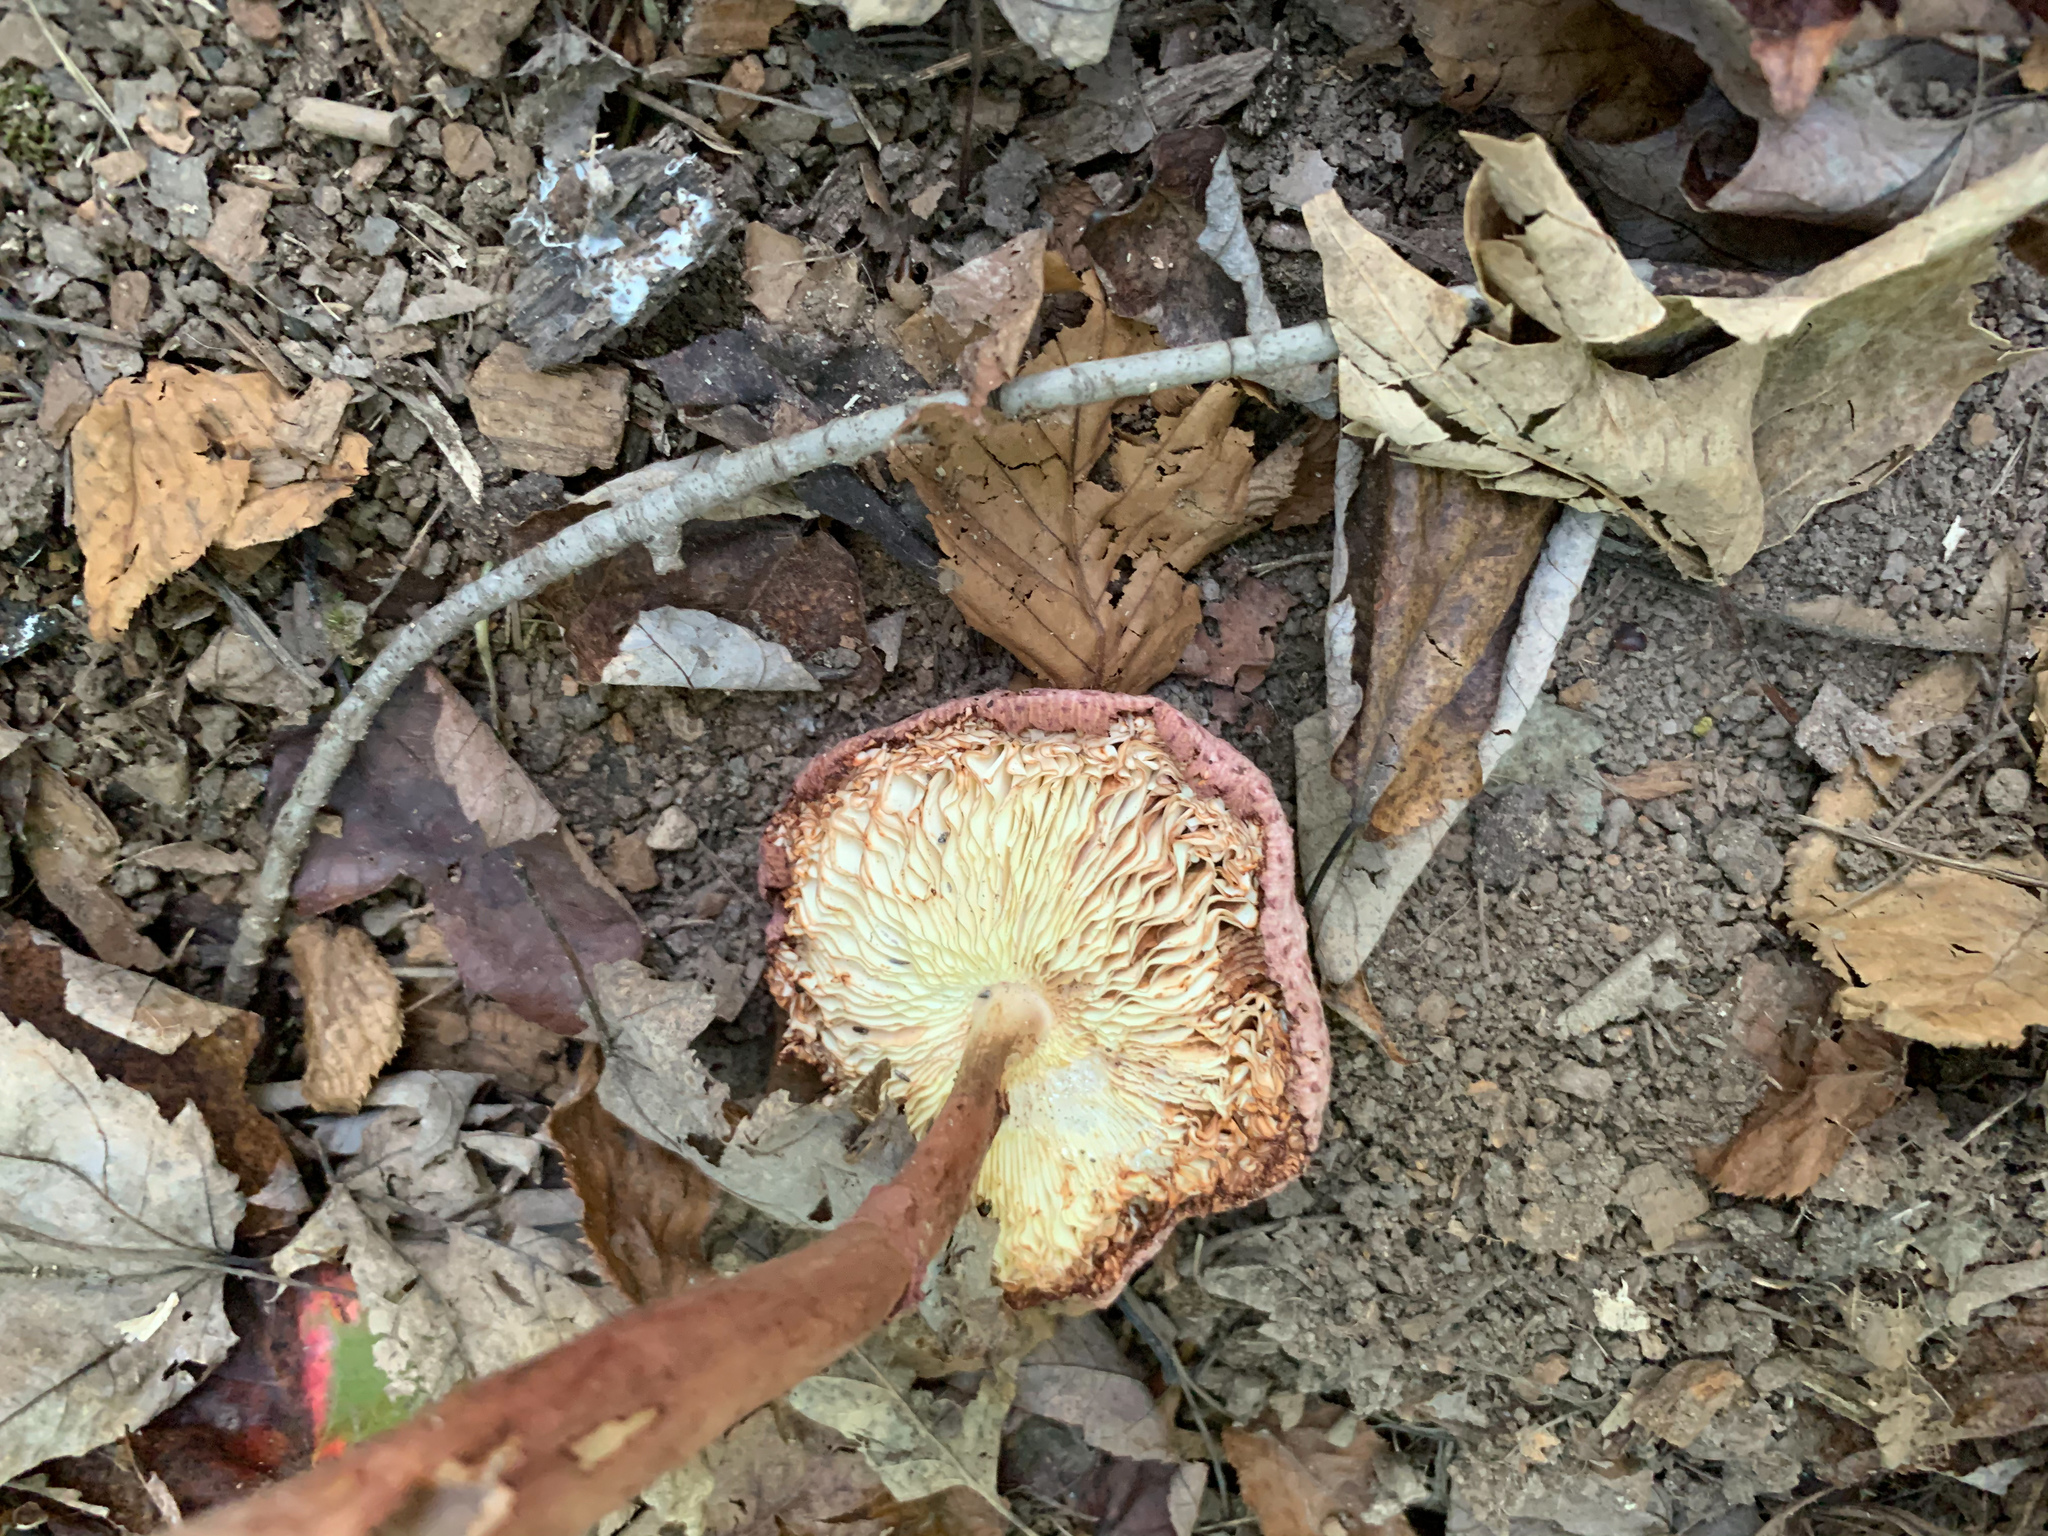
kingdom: Fungi
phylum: Basidiomycota
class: Agaricomycetes
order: Agaricales
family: Agaricaceae
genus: Leucoagaricus
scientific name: Leucoagaricus americanus
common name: Reddening lepiota
